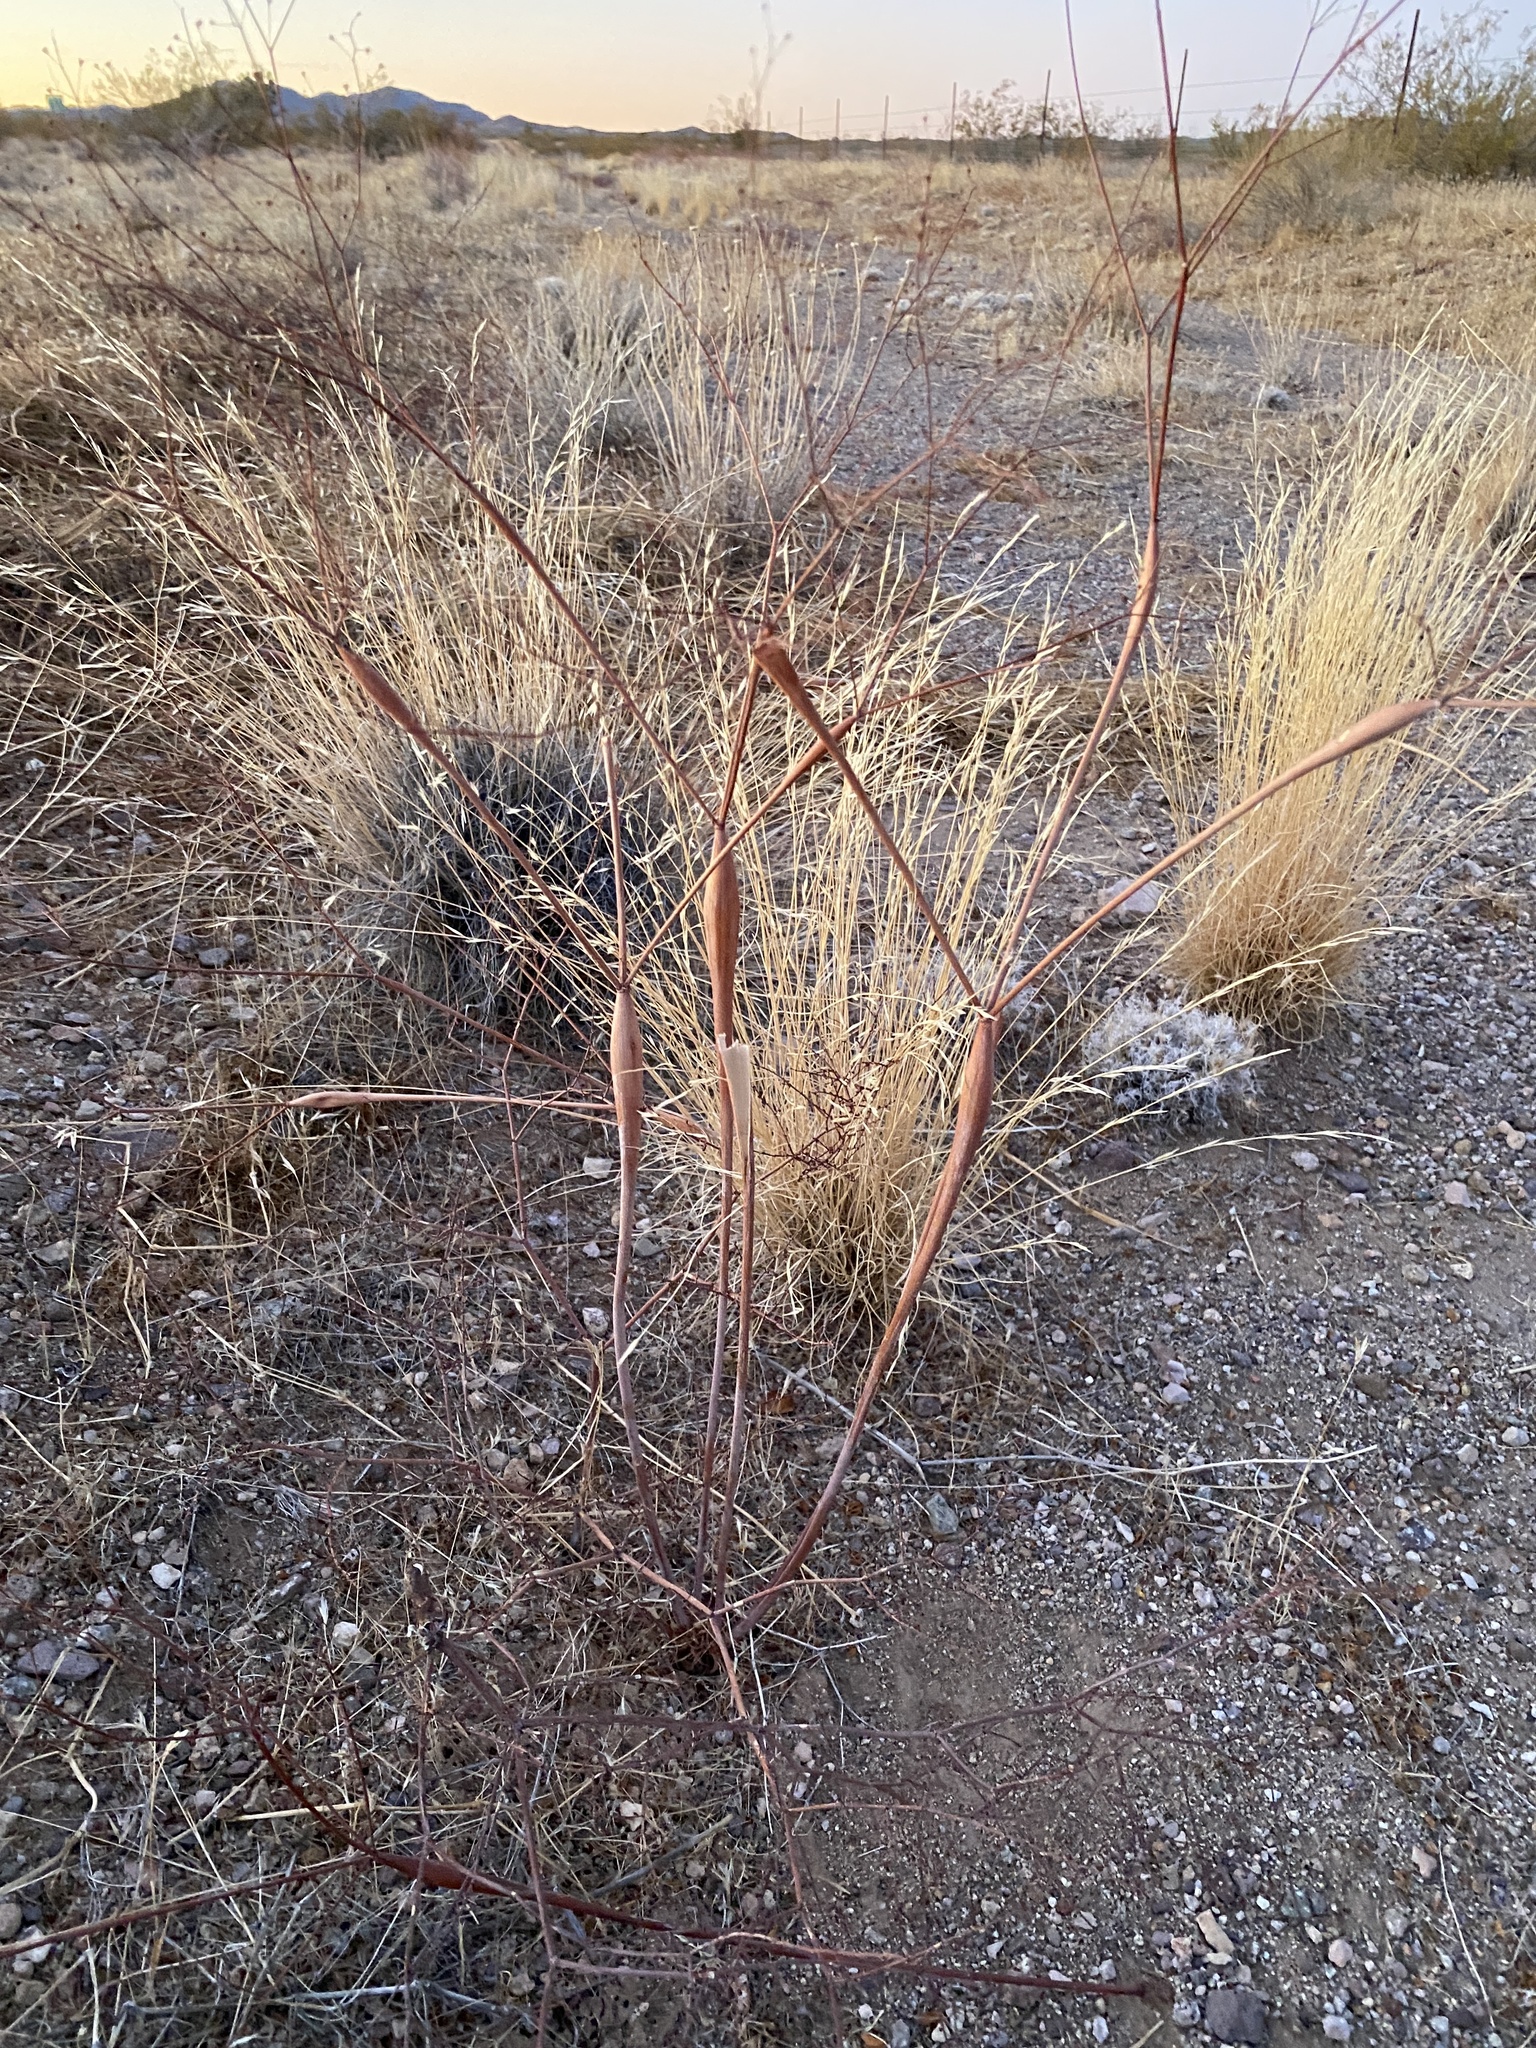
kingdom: Plantae
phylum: Tracheophyta
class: Magnoliopsida
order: Caryophyllales
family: Polygonaceae
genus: Eriogonum
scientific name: Eriogonum inflatum
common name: Desert trumpet
